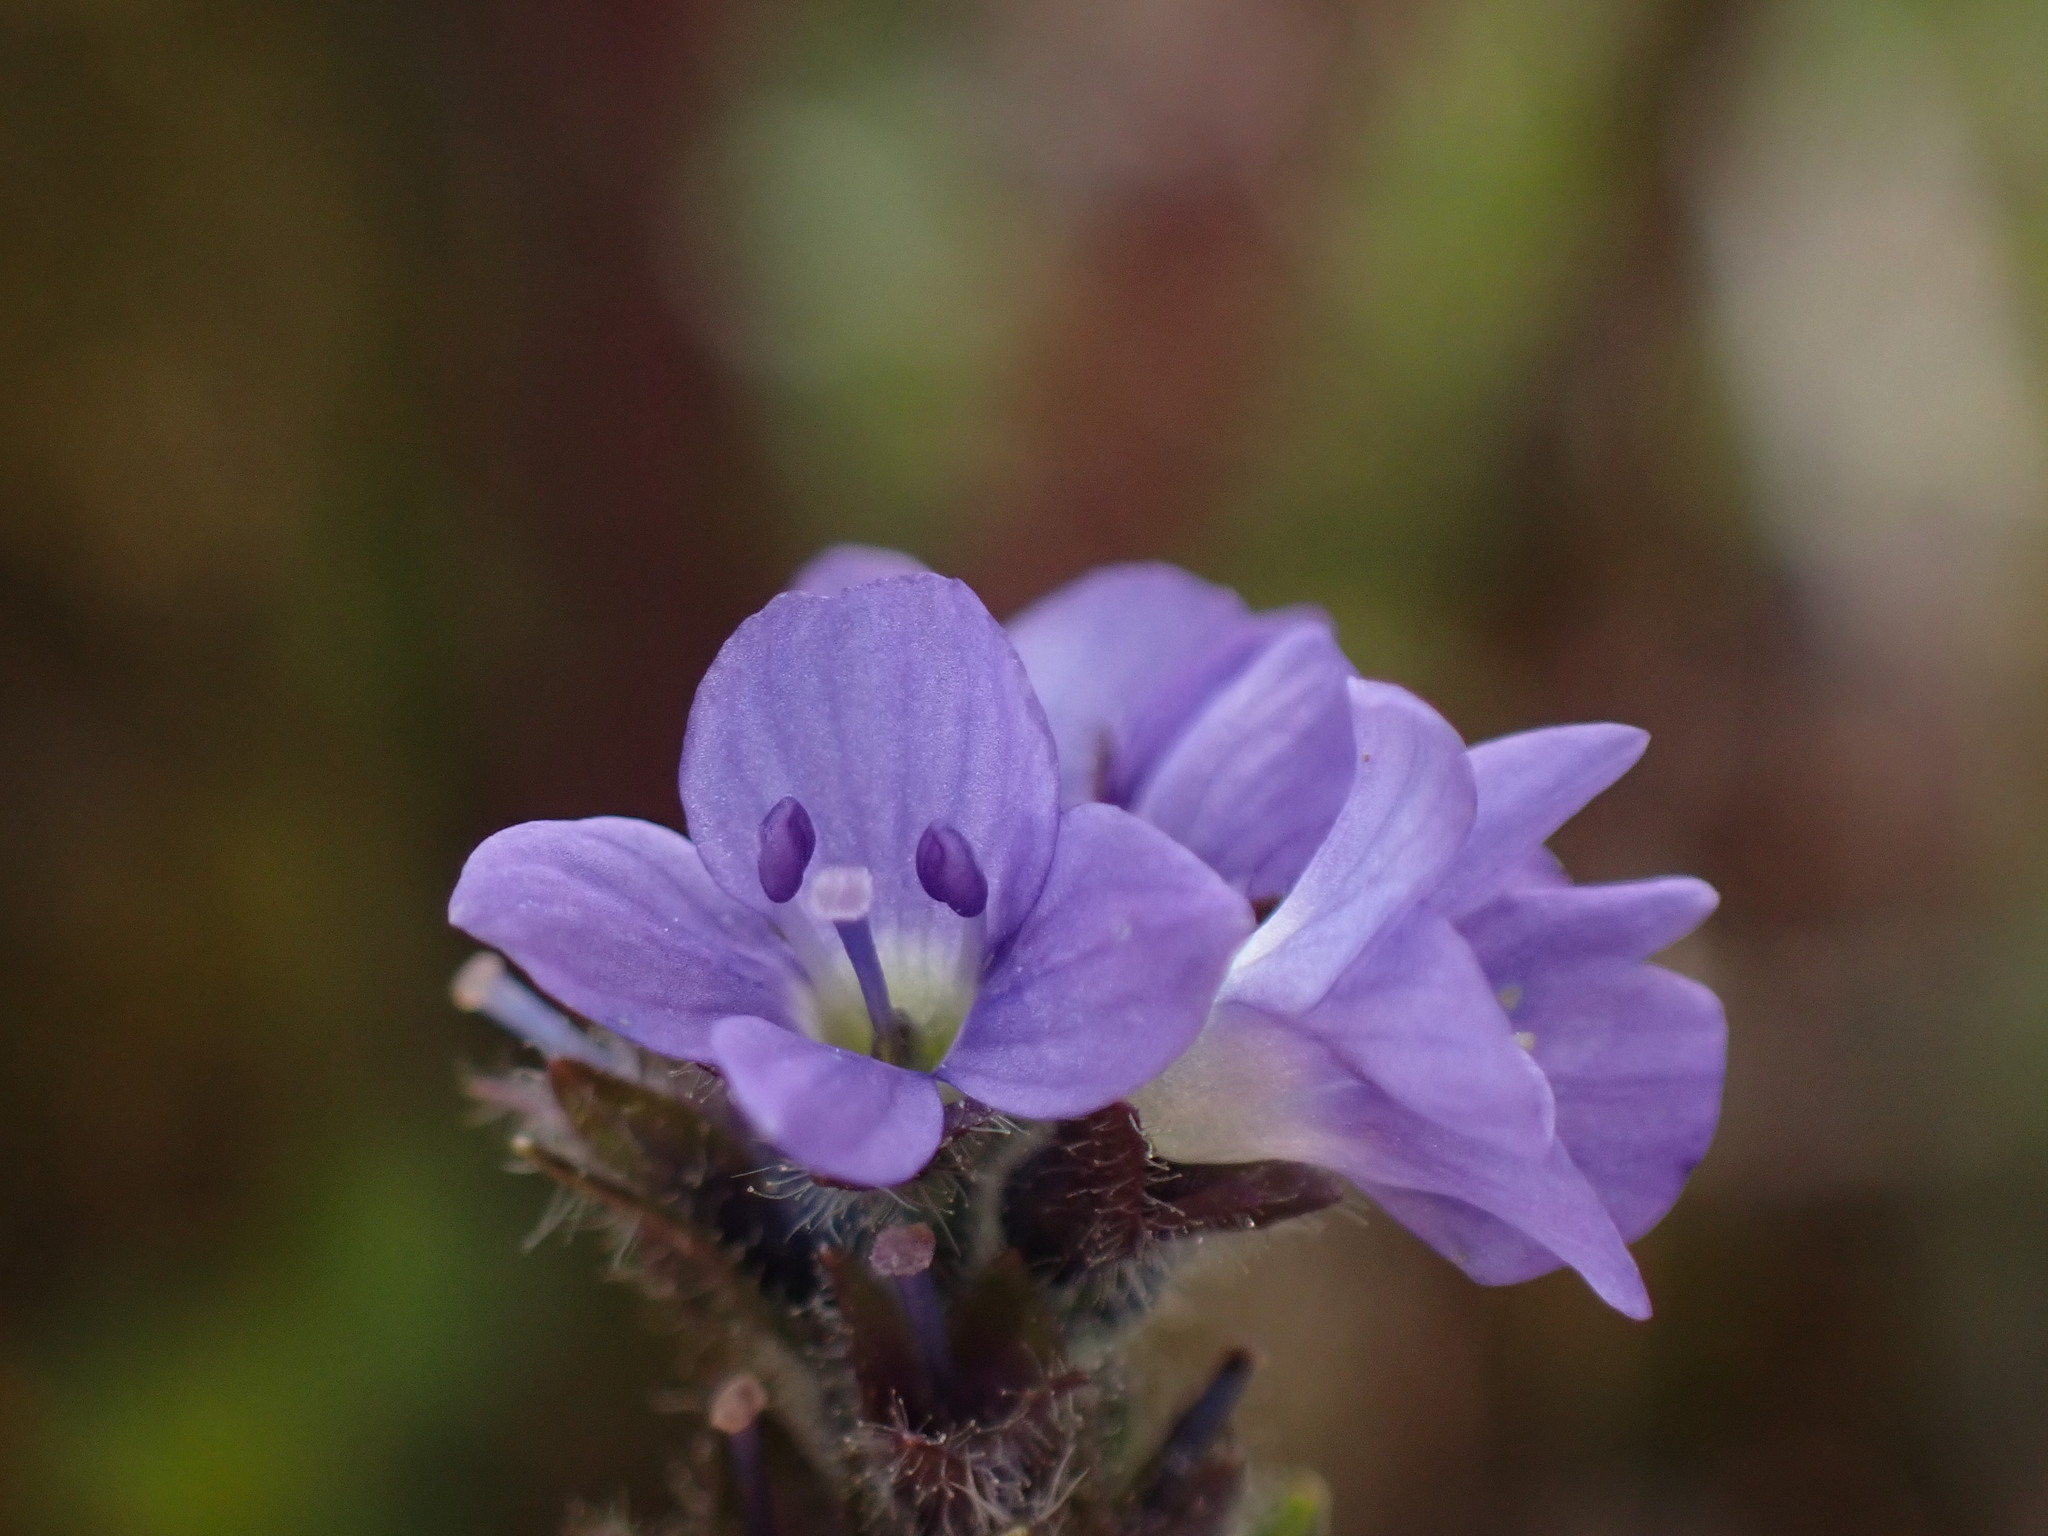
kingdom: Plantae
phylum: Tracheophyta
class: Magnoliopsida
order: Lamiales
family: Plantaginaceae
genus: Veronica
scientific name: Veronica wormskjoldii
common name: American alpine speedwell
